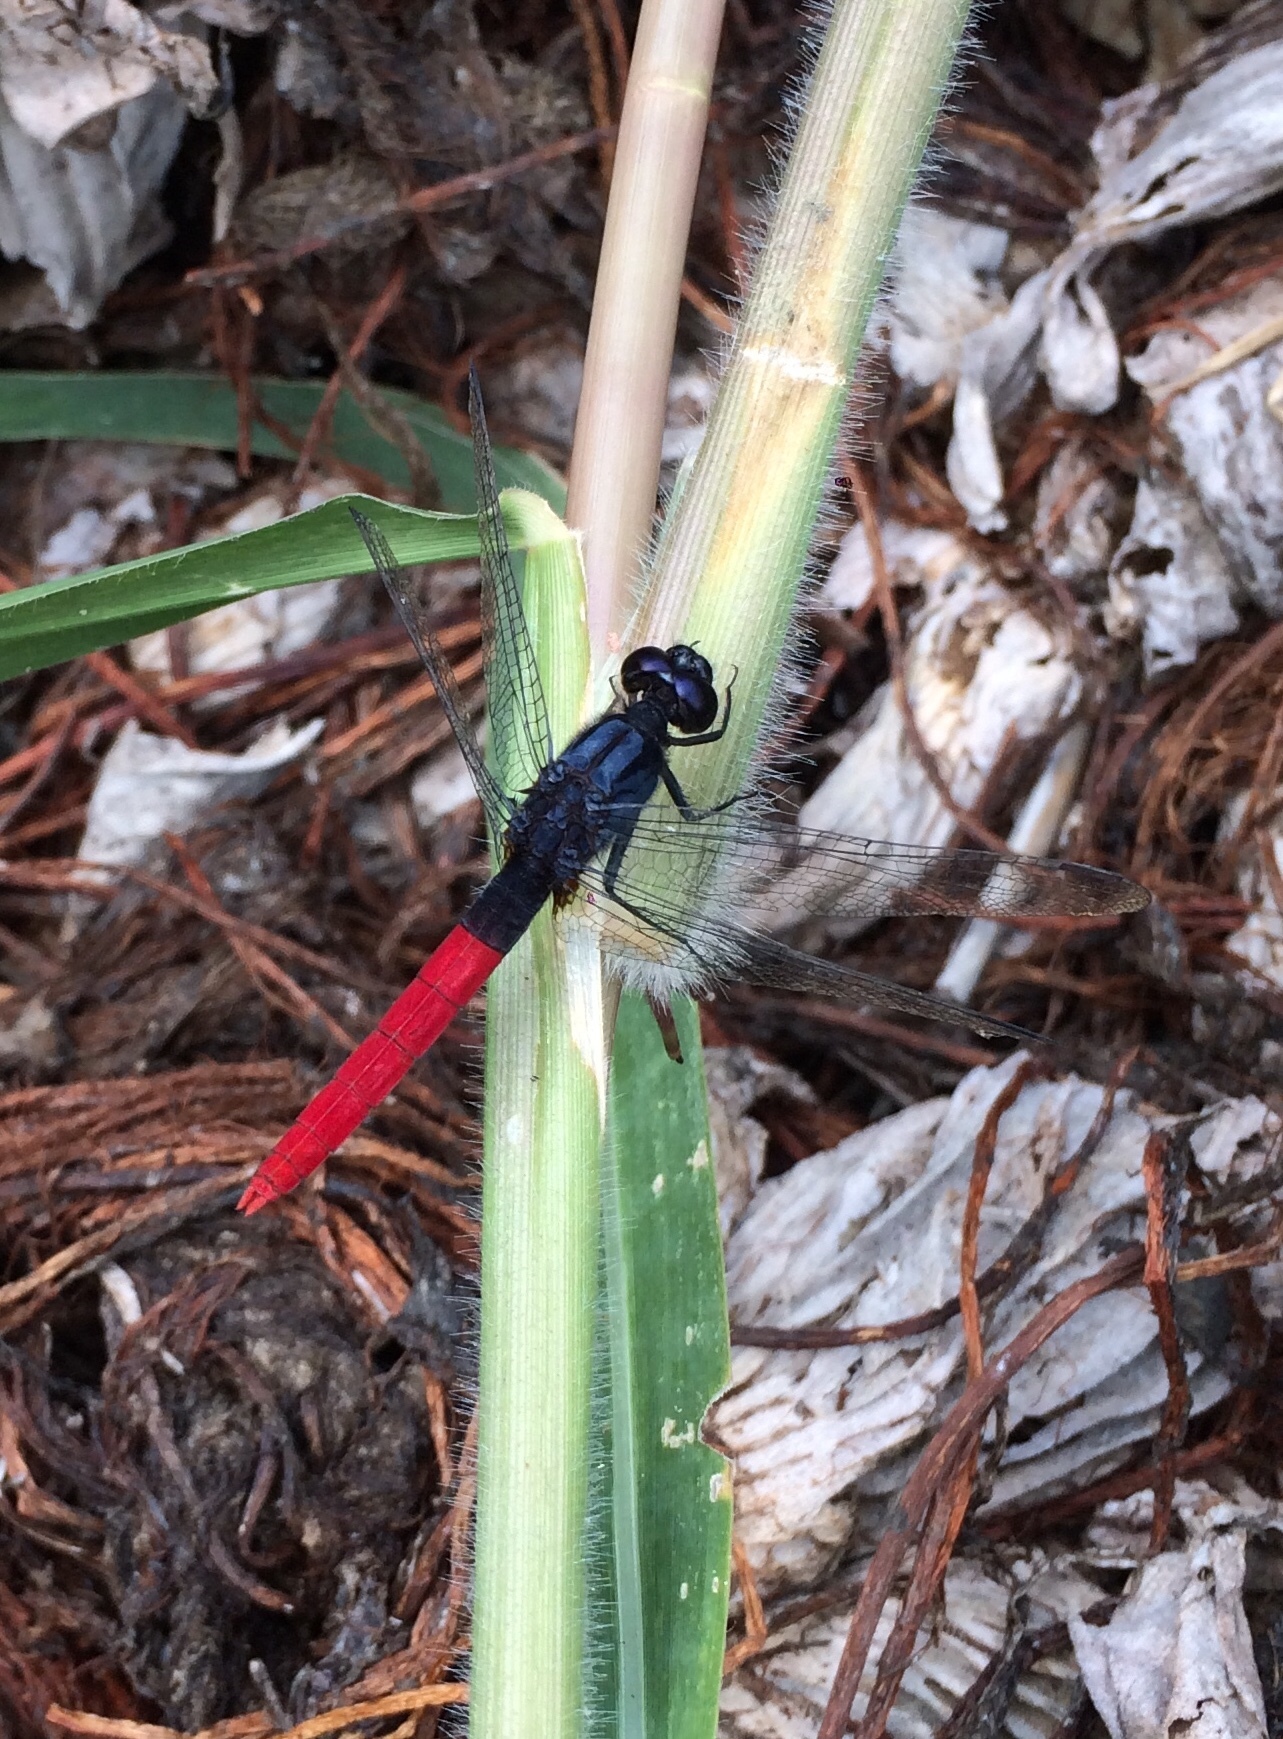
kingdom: Animalia
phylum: Arthropoda
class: Insecta
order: Odonata
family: Libellulidae
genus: Erythemis
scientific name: Erythemis peruviana
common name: Flame-tailed pondhawk
